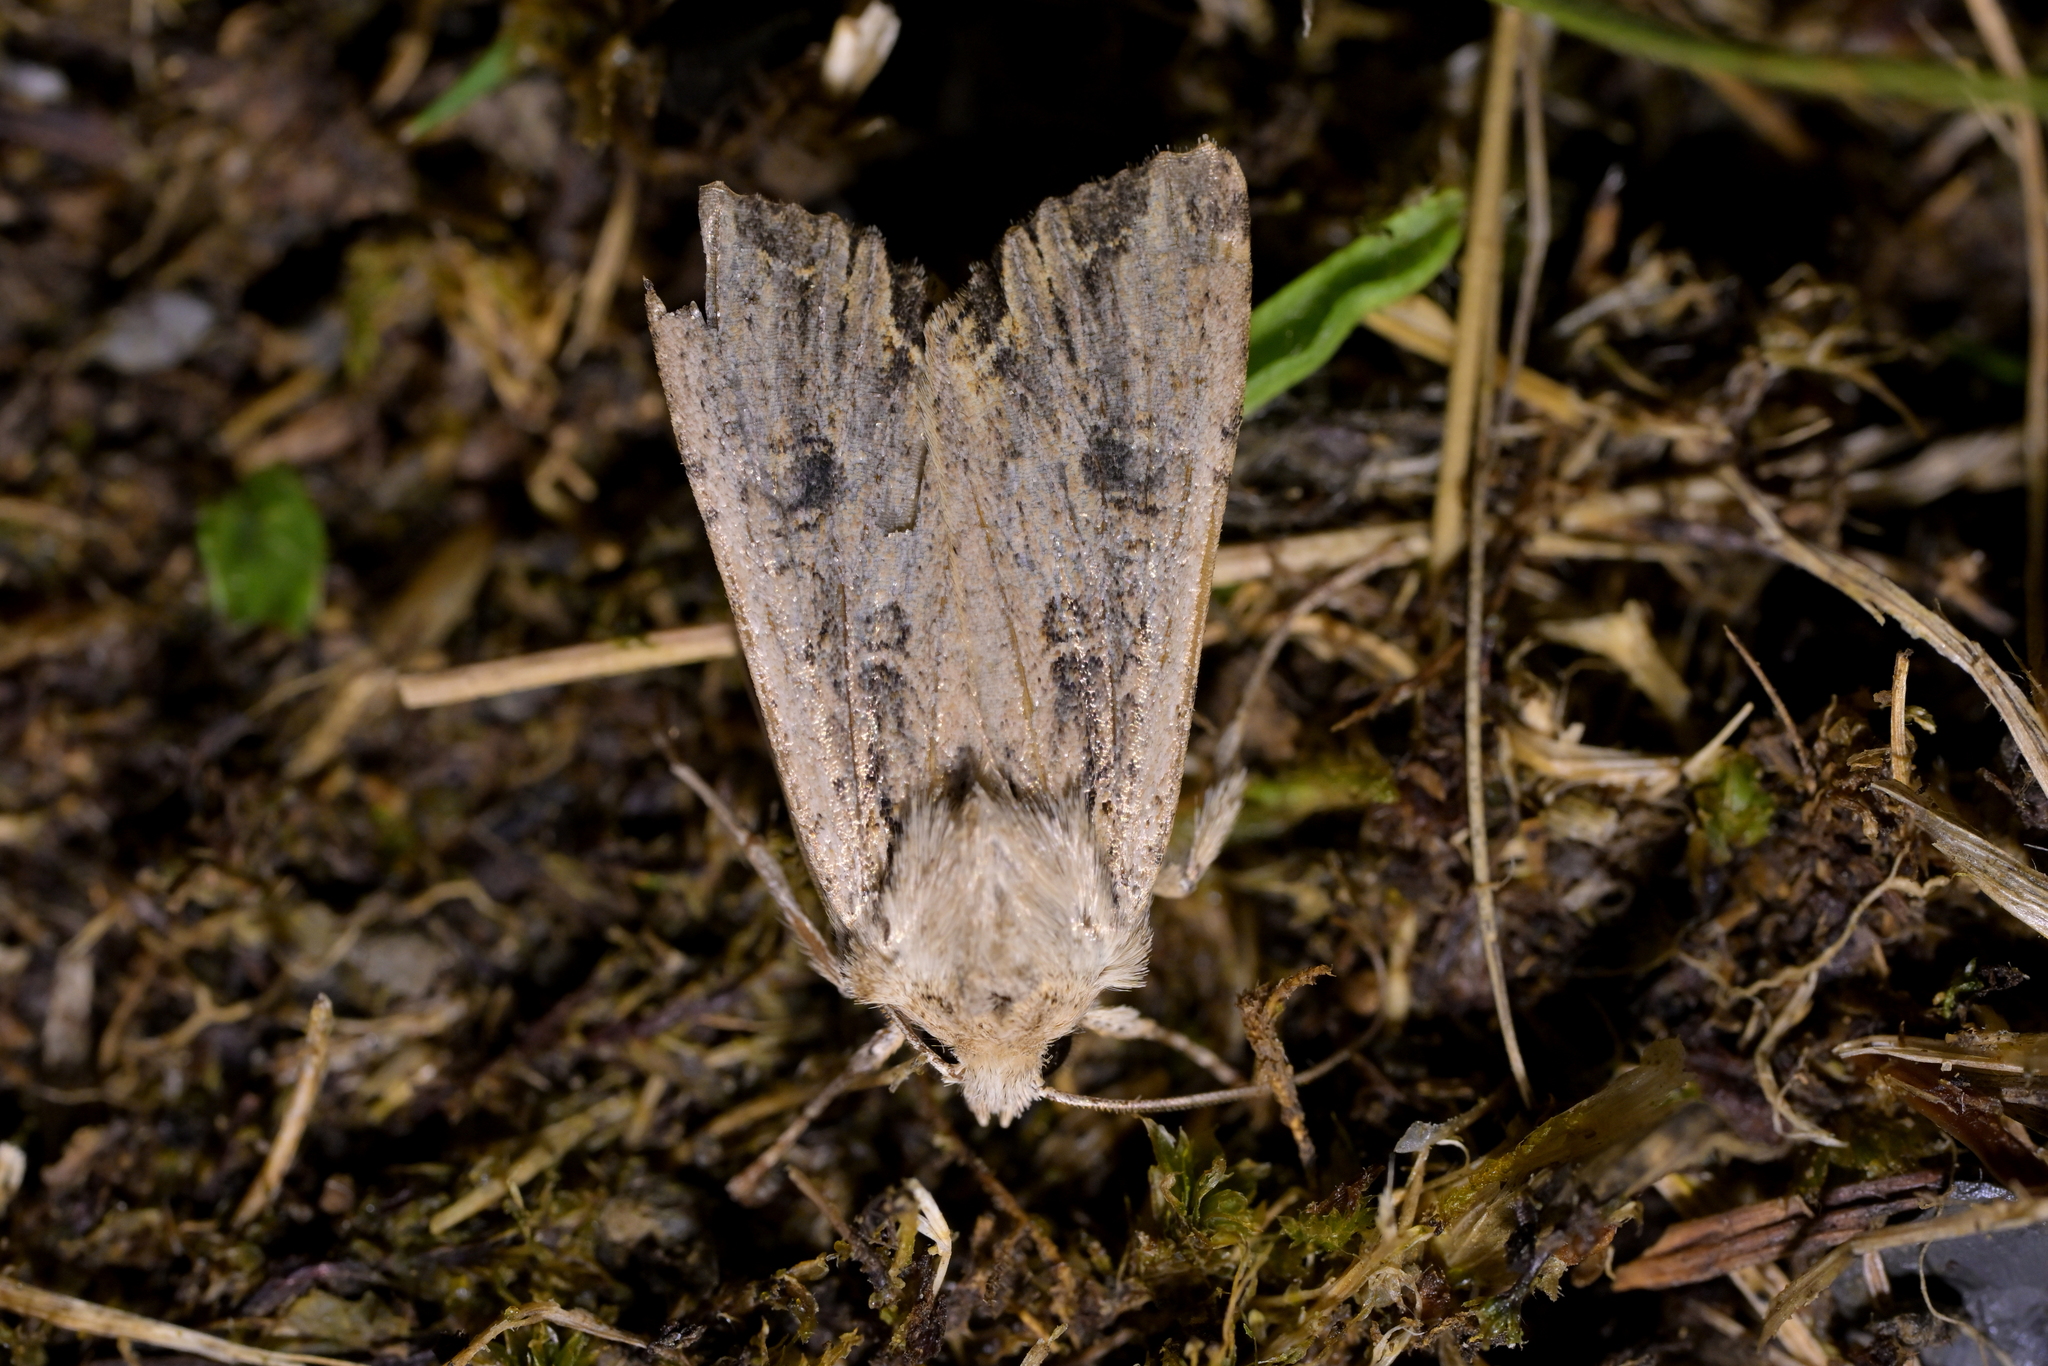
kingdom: Animalia
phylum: Arthropoda
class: Insecta
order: Lepidoptera
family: Noctuidae
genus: Ichneutica
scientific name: Ichneutica lignana
